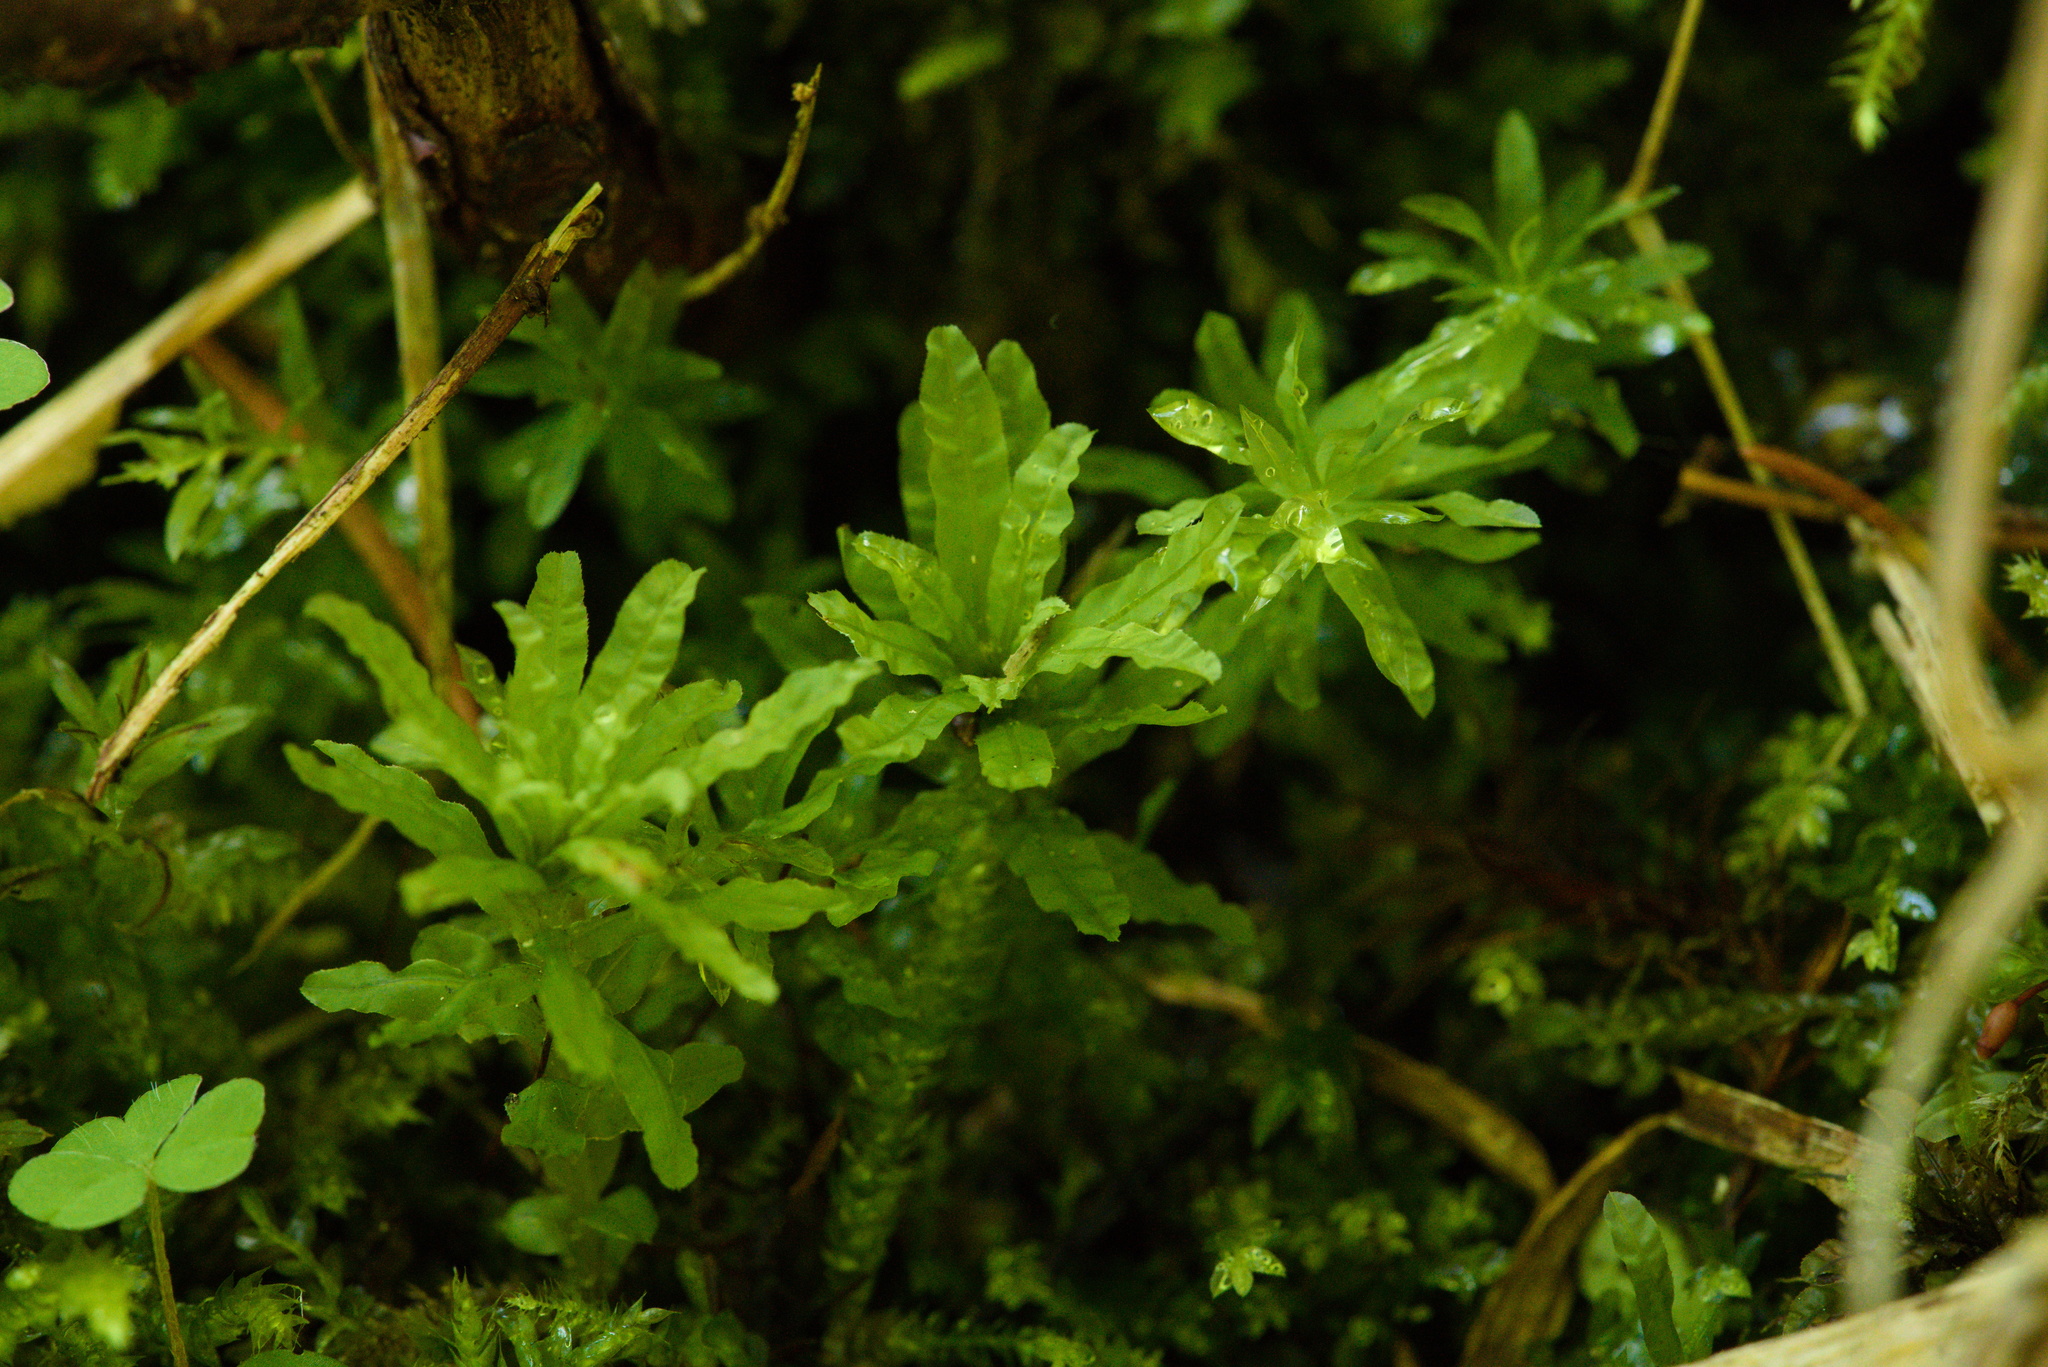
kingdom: Plantae
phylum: Bryophyta
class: Bryopsida
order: Bryales
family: Mniaceae
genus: Plagiomnium
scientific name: Plagiomnium undulatum
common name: Hart's-tongue thyme-moss
